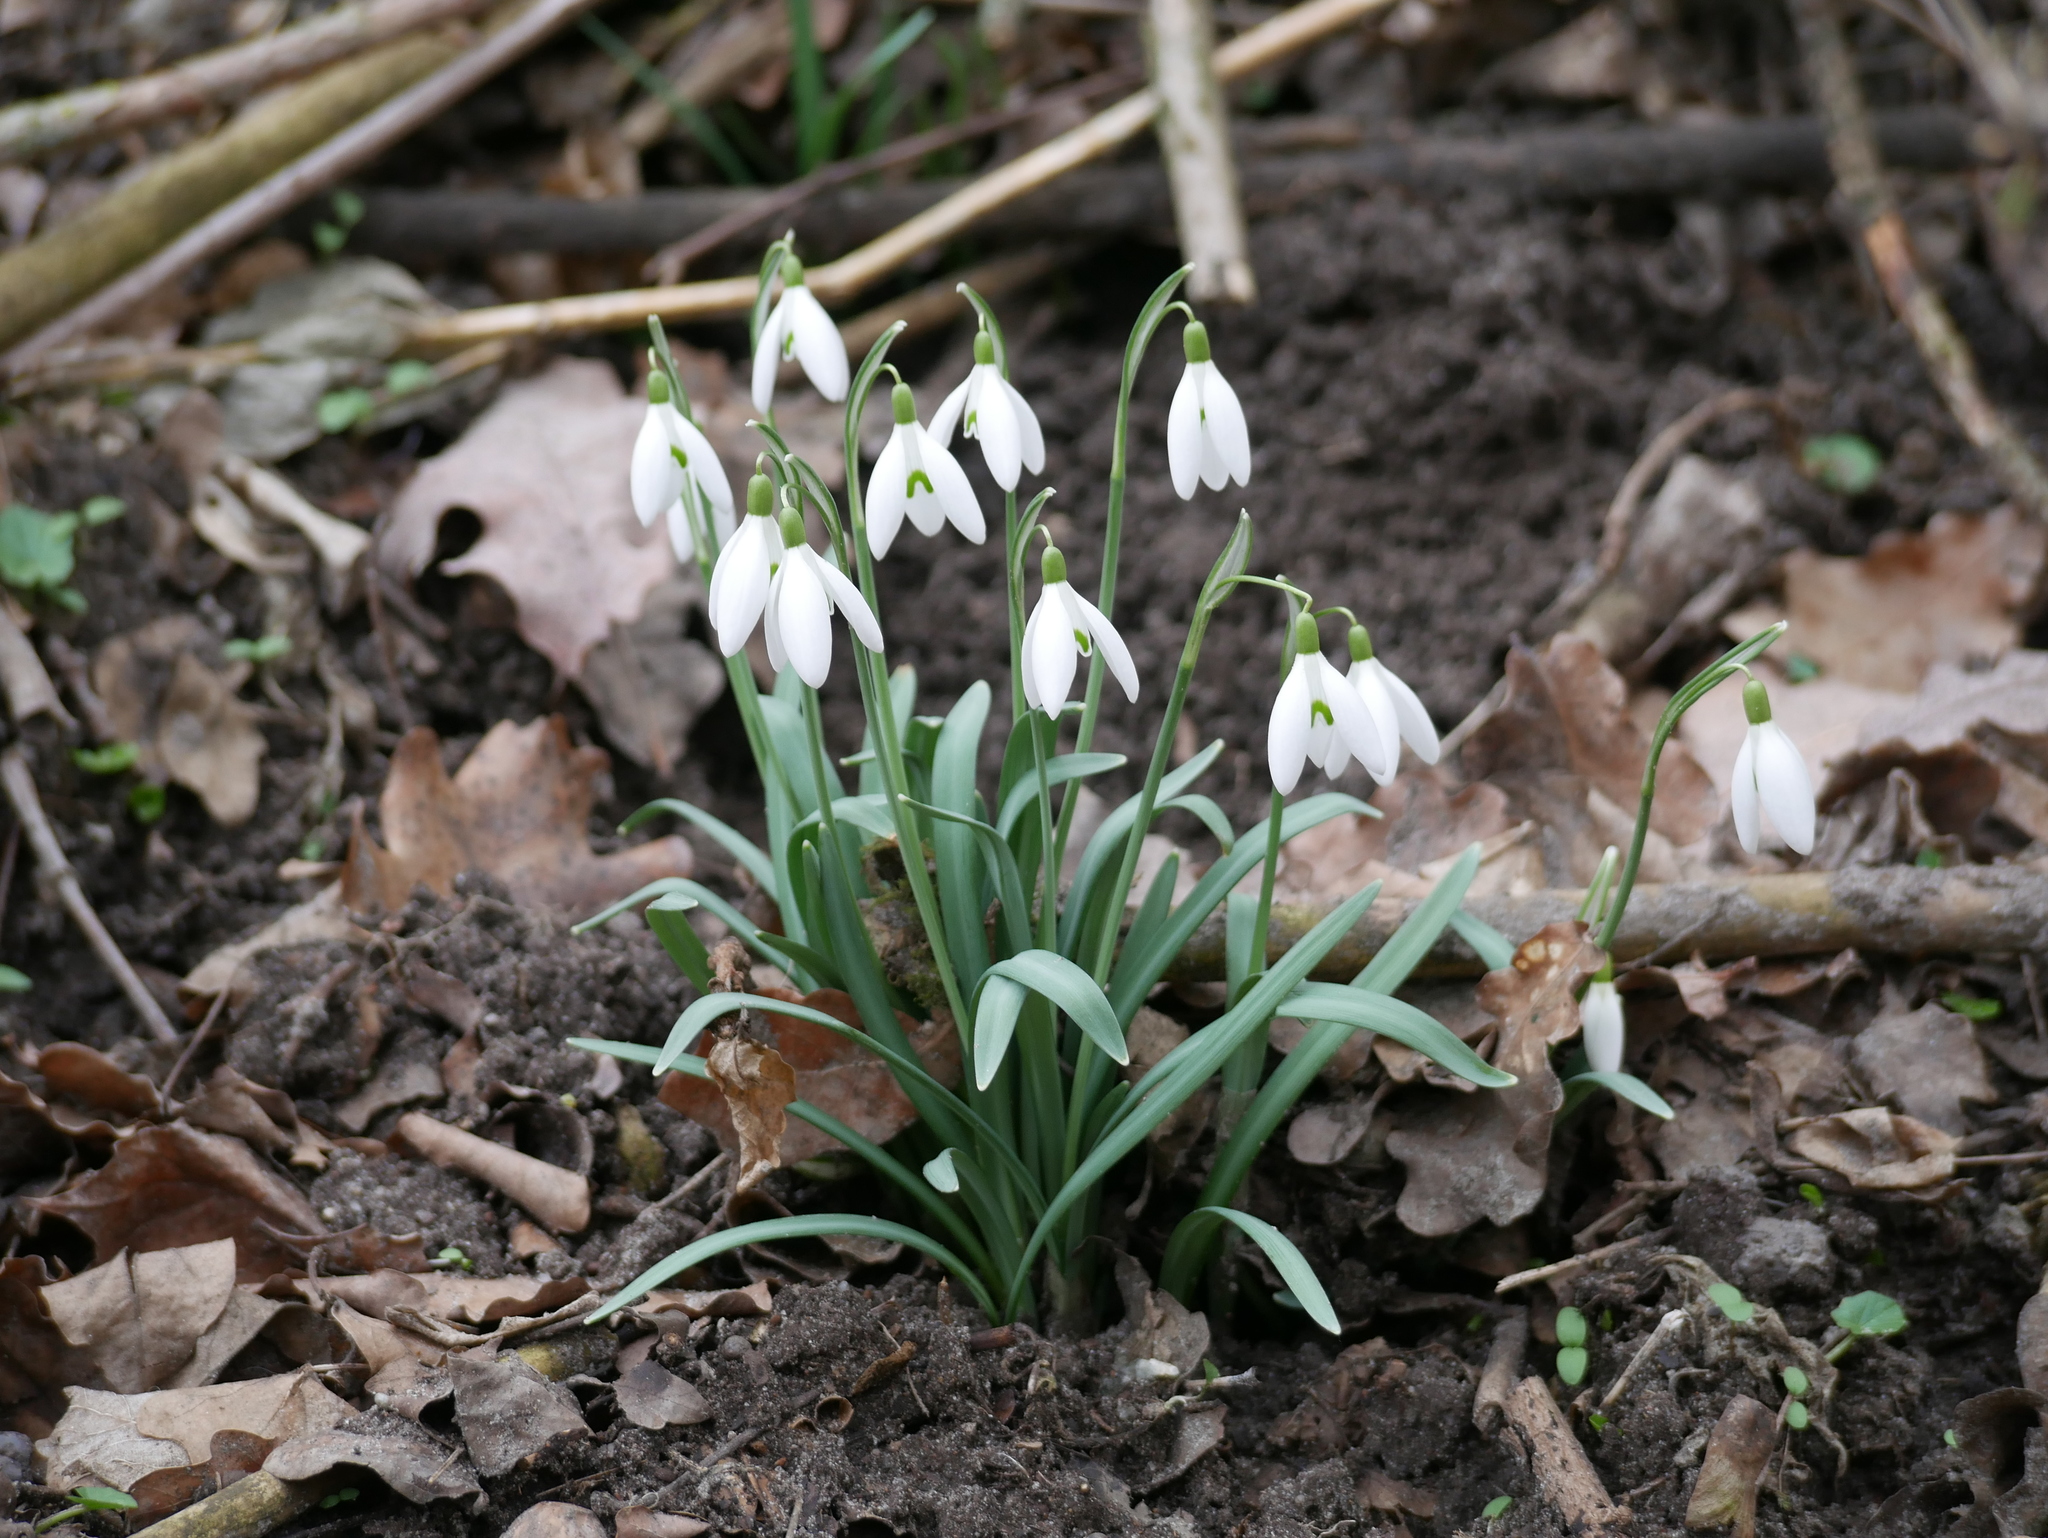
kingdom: Plantae
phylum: Tracheophyta
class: Liliopsida
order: Asparagales
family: Amaryllidaceae
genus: Galanthus
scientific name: Galanthus nivalis
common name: Snowdrop
